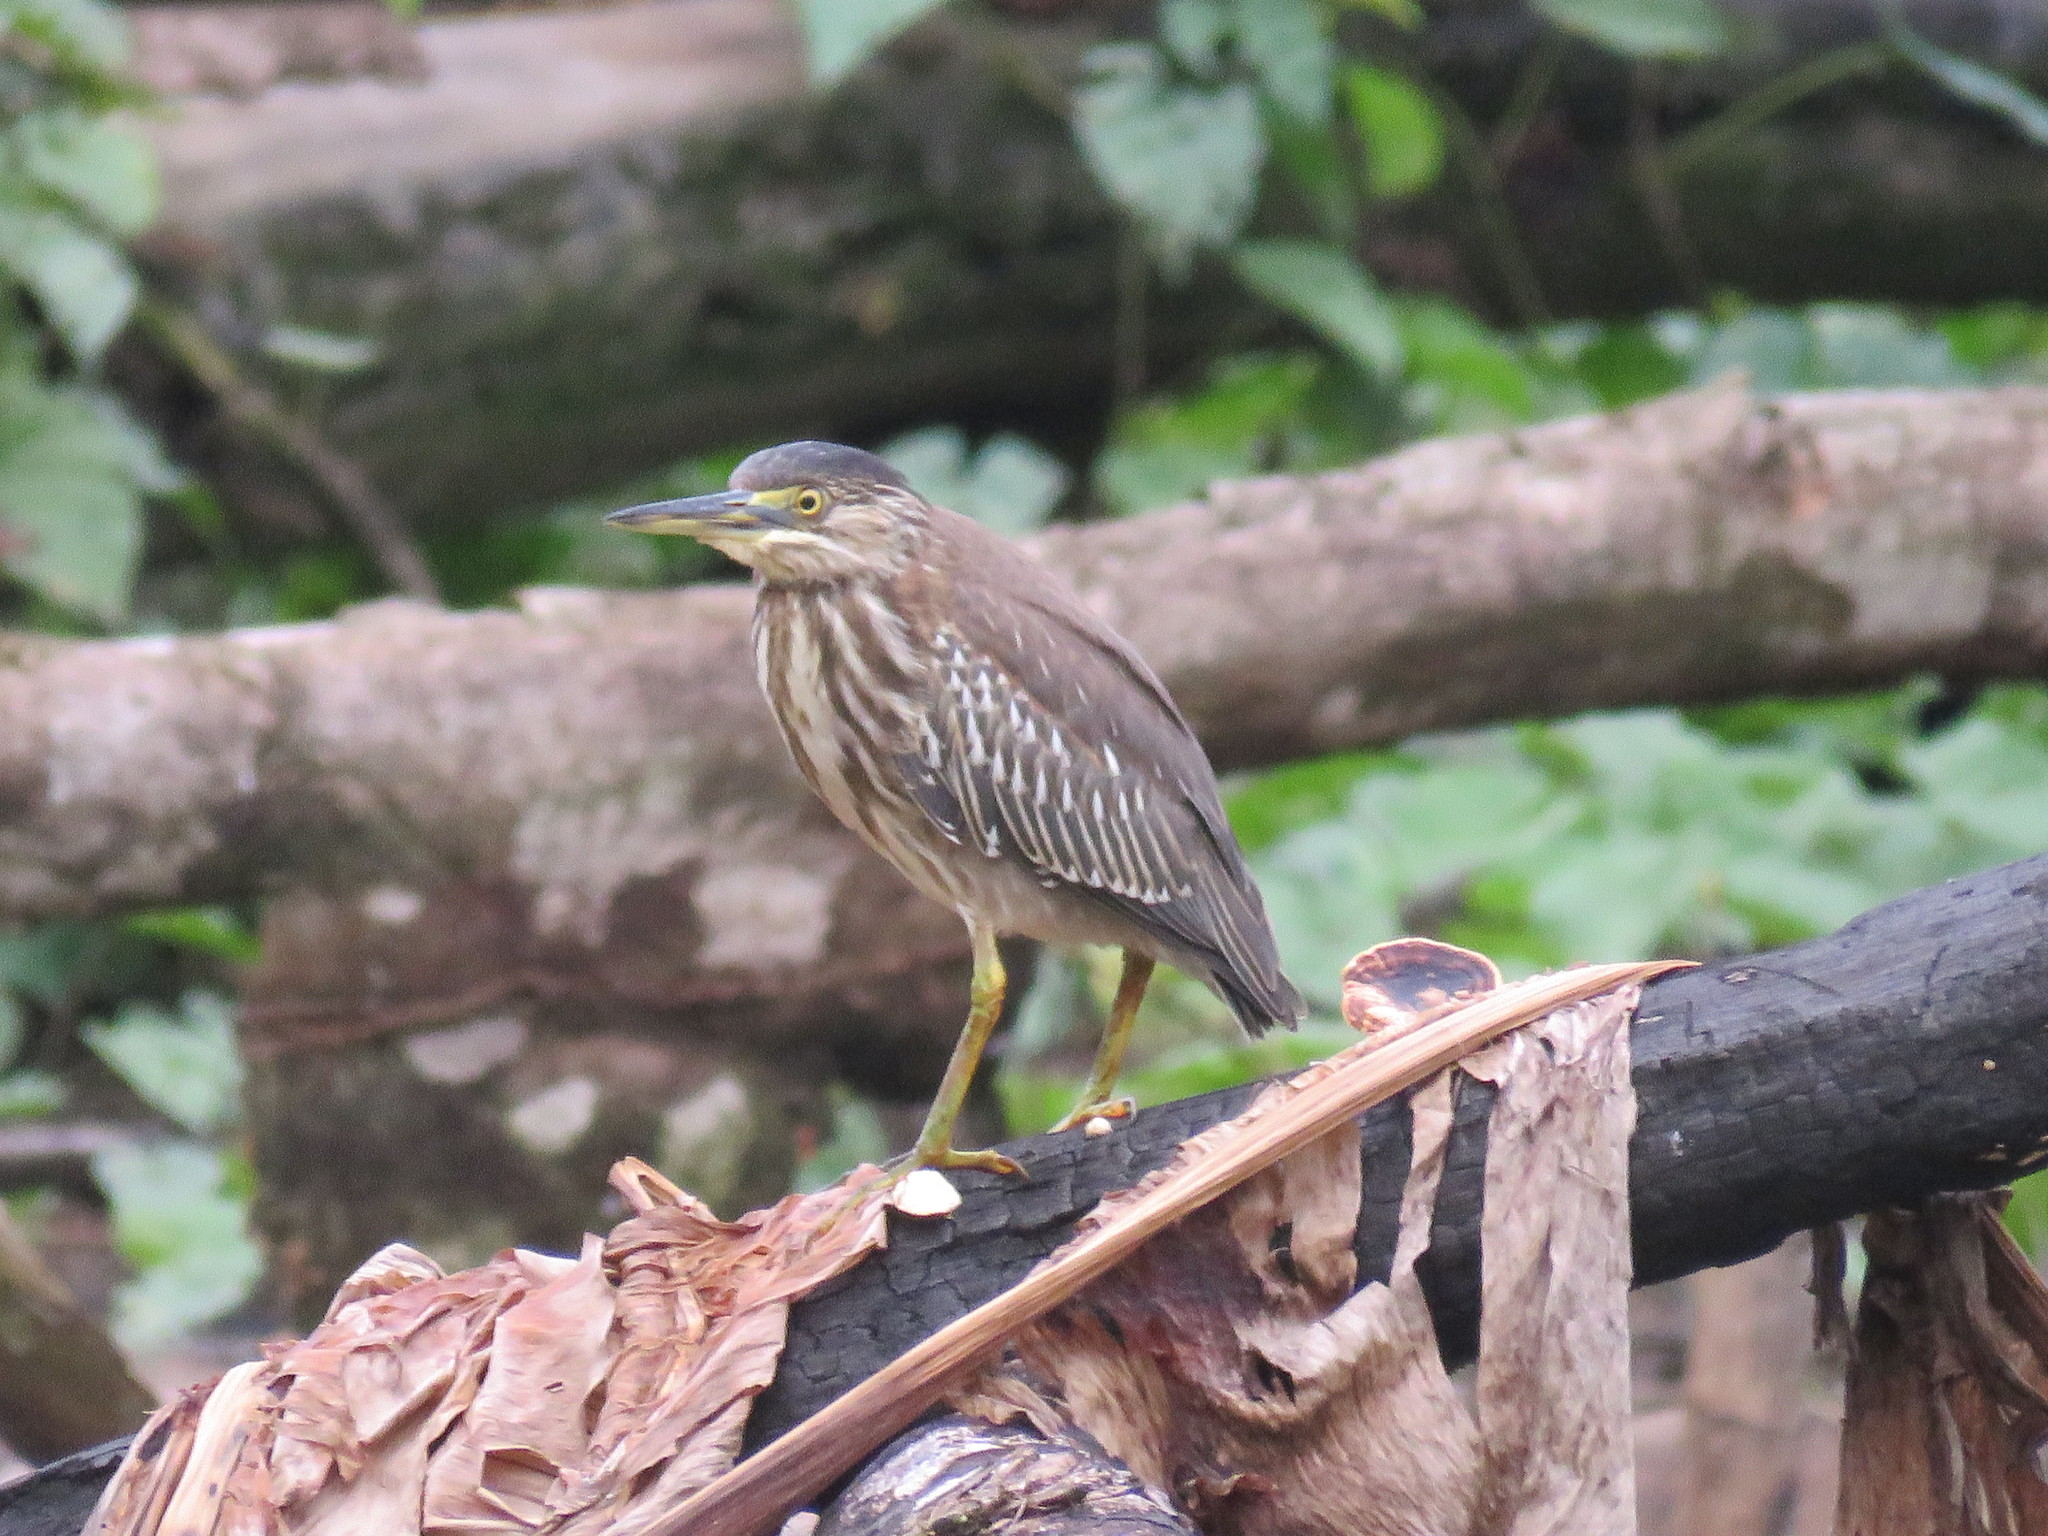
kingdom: Animalia
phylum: Chordata
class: Aves
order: Pelecaniformes
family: Ardeidae
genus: Butorides
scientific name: Butorides striata
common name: Striated heron
